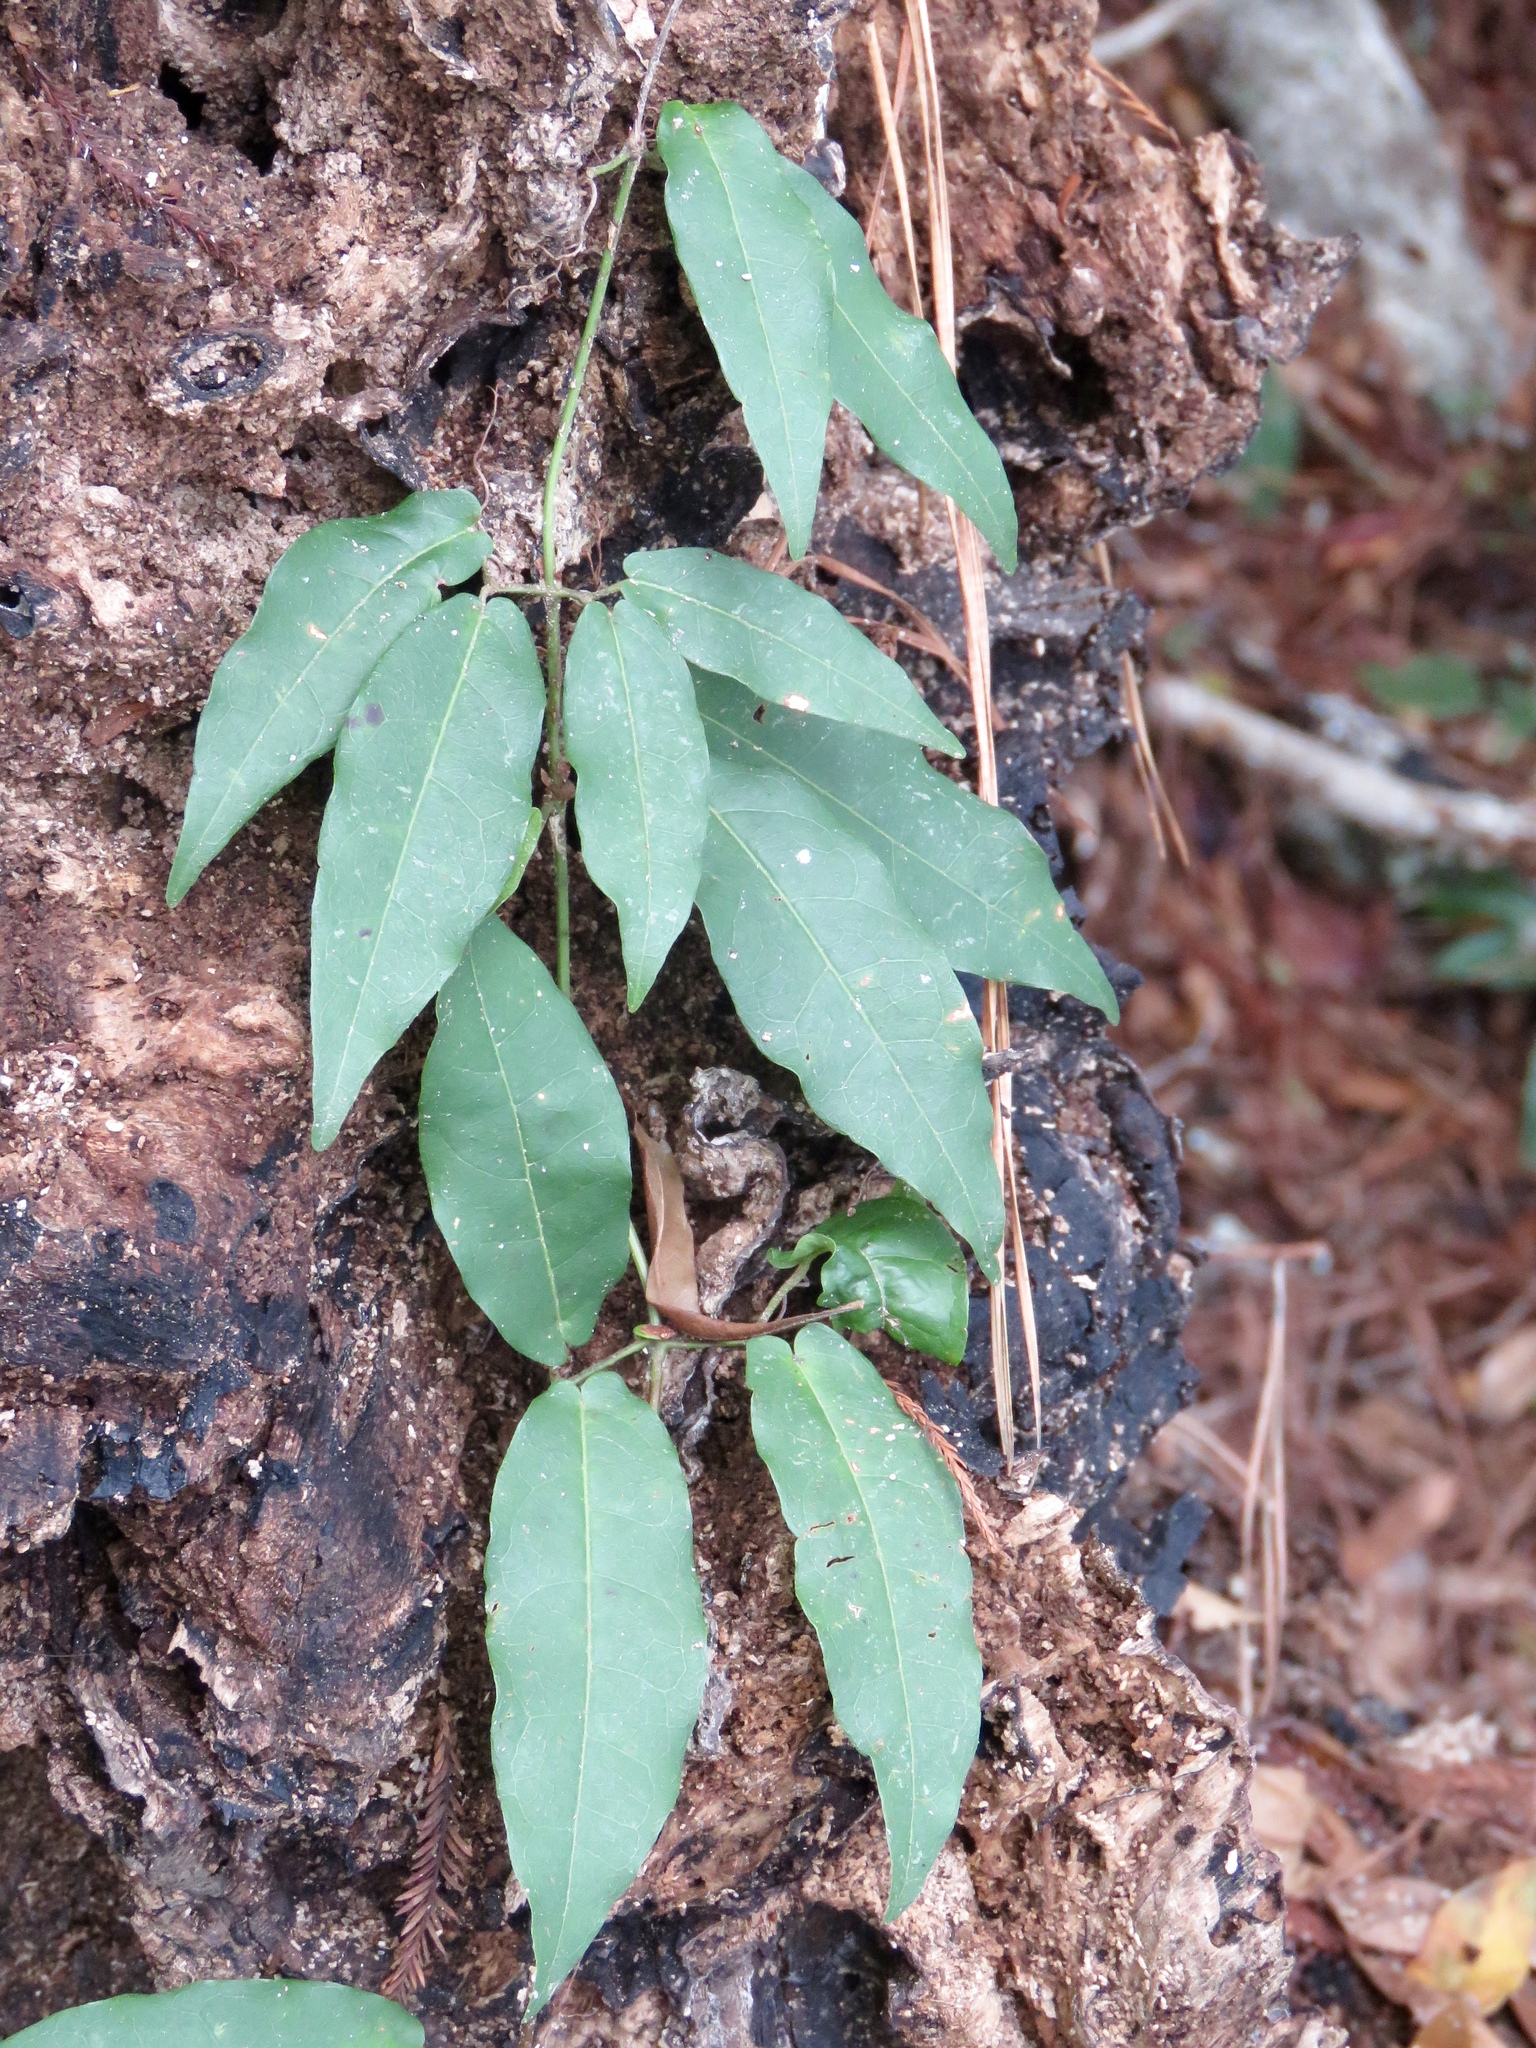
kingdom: Plantae
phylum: Tracheophyta
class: Magnoliopsida
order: Lamiales
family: Bignoniaceae
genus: Bignonia
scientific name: Bignonia capreolata
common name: Crossvine
